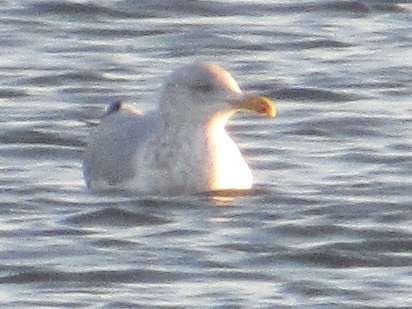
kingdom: Animalia
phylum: Chordata
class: Aves
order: Charadriiformes
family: Laridae
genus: Larus
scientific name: Larus argentatus
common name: Herring gull
